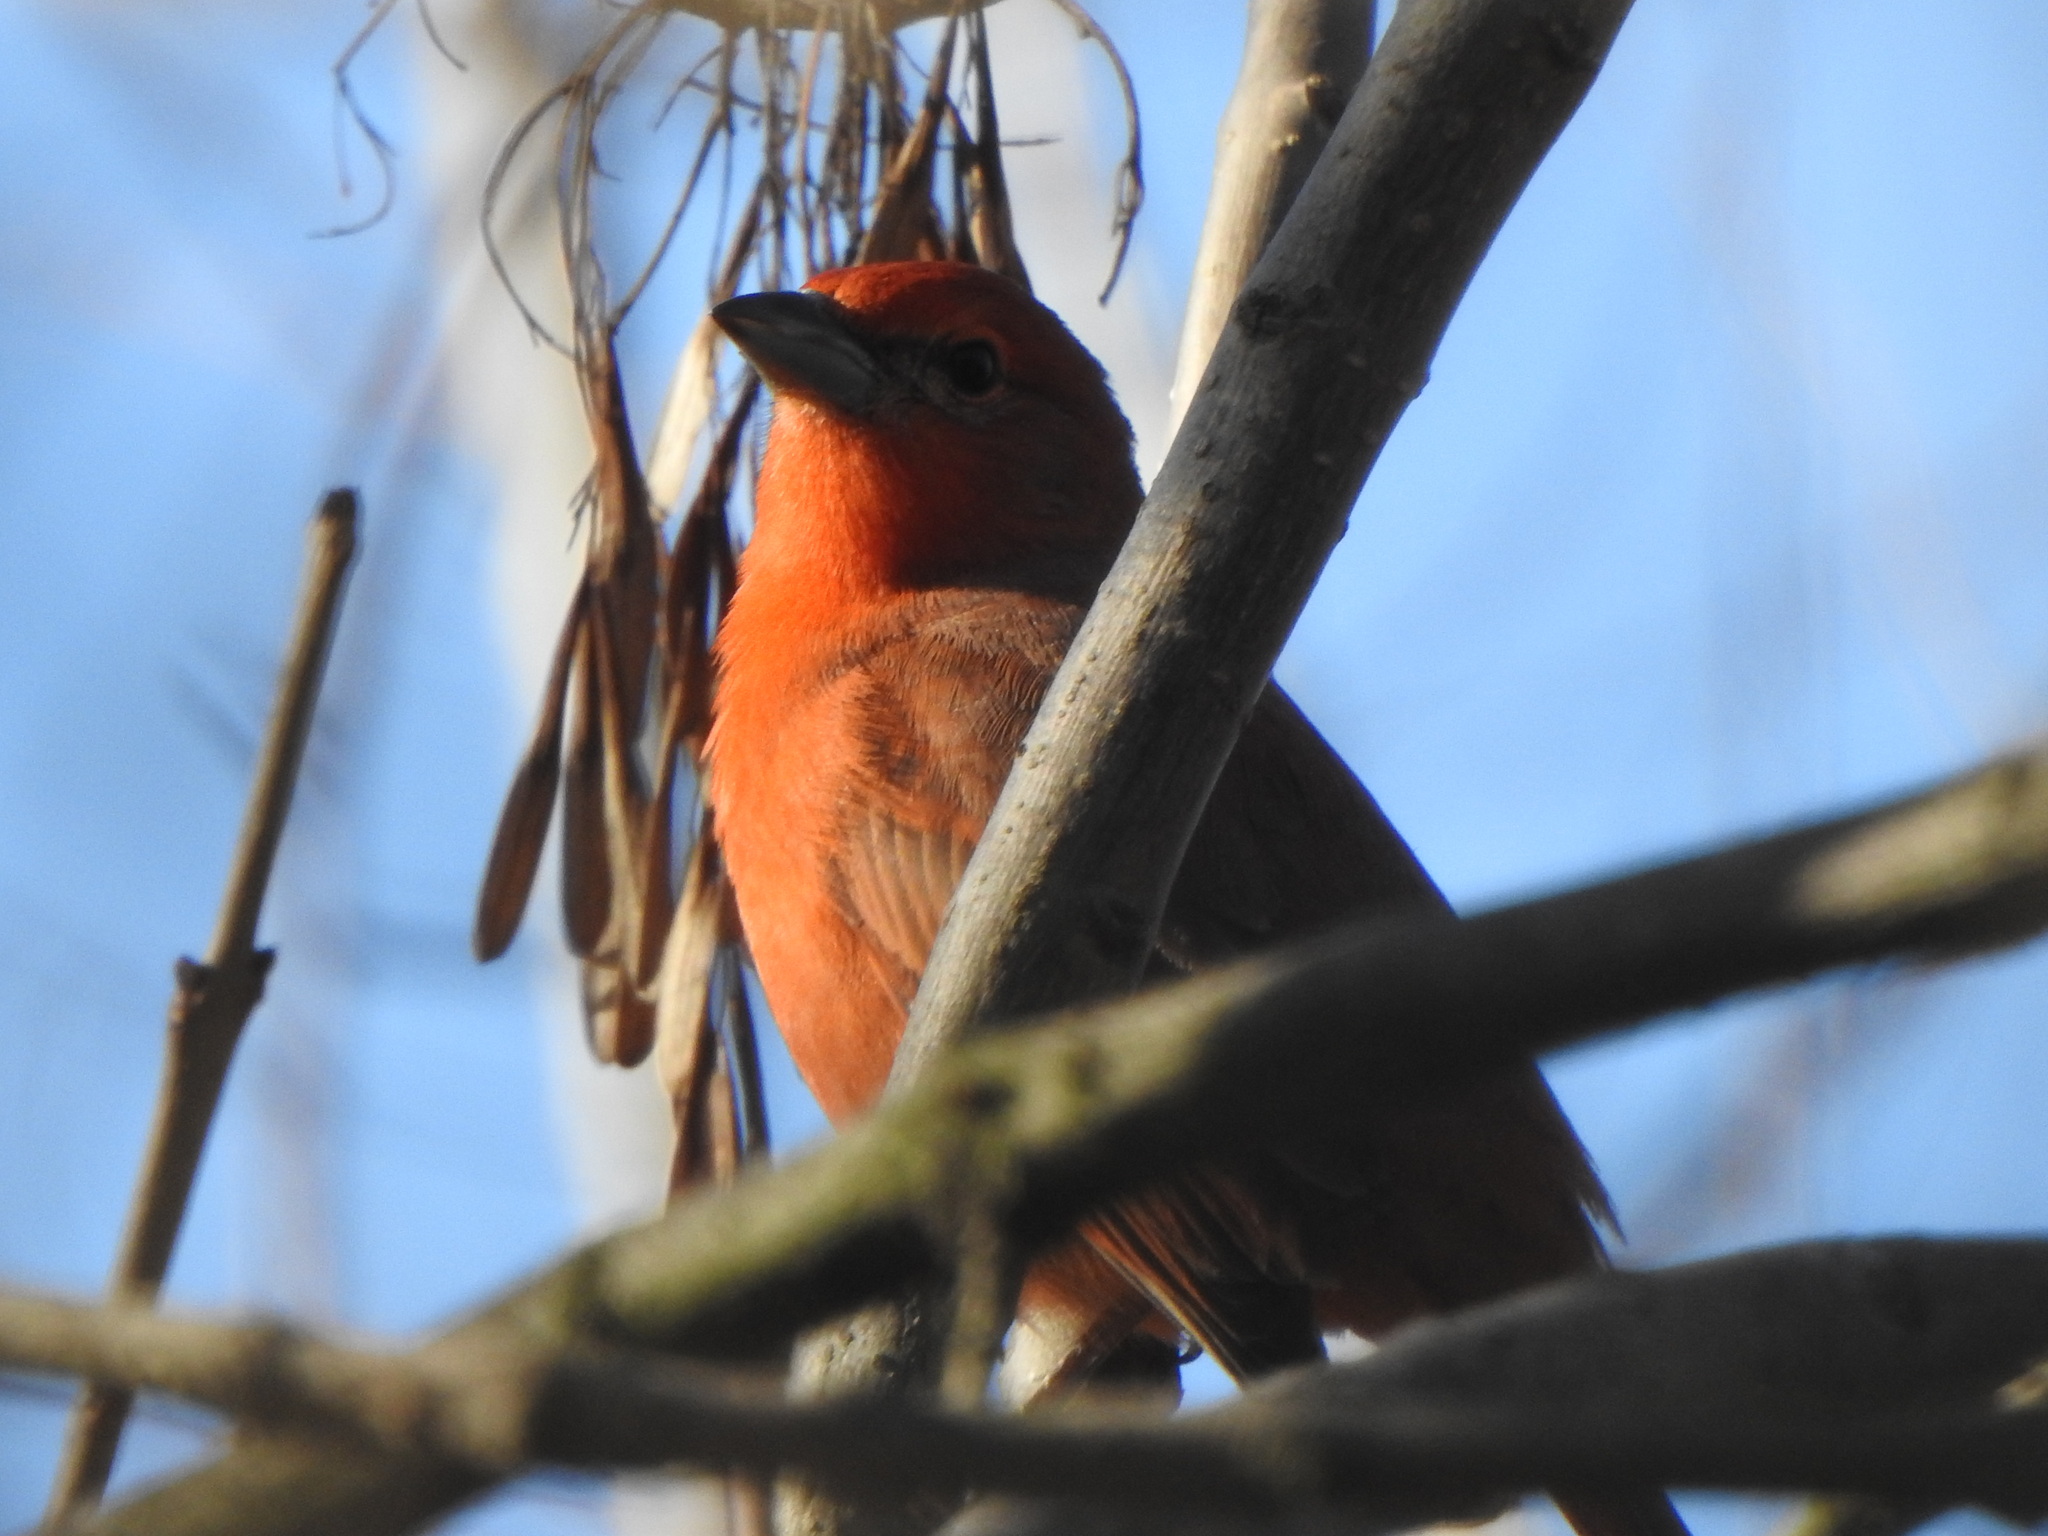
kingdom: Animalia
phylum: Chordata
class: Aves
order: Passeriformes
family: Cardinalidae
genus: Piranga
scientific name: Piranga flava
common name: Red tanager
